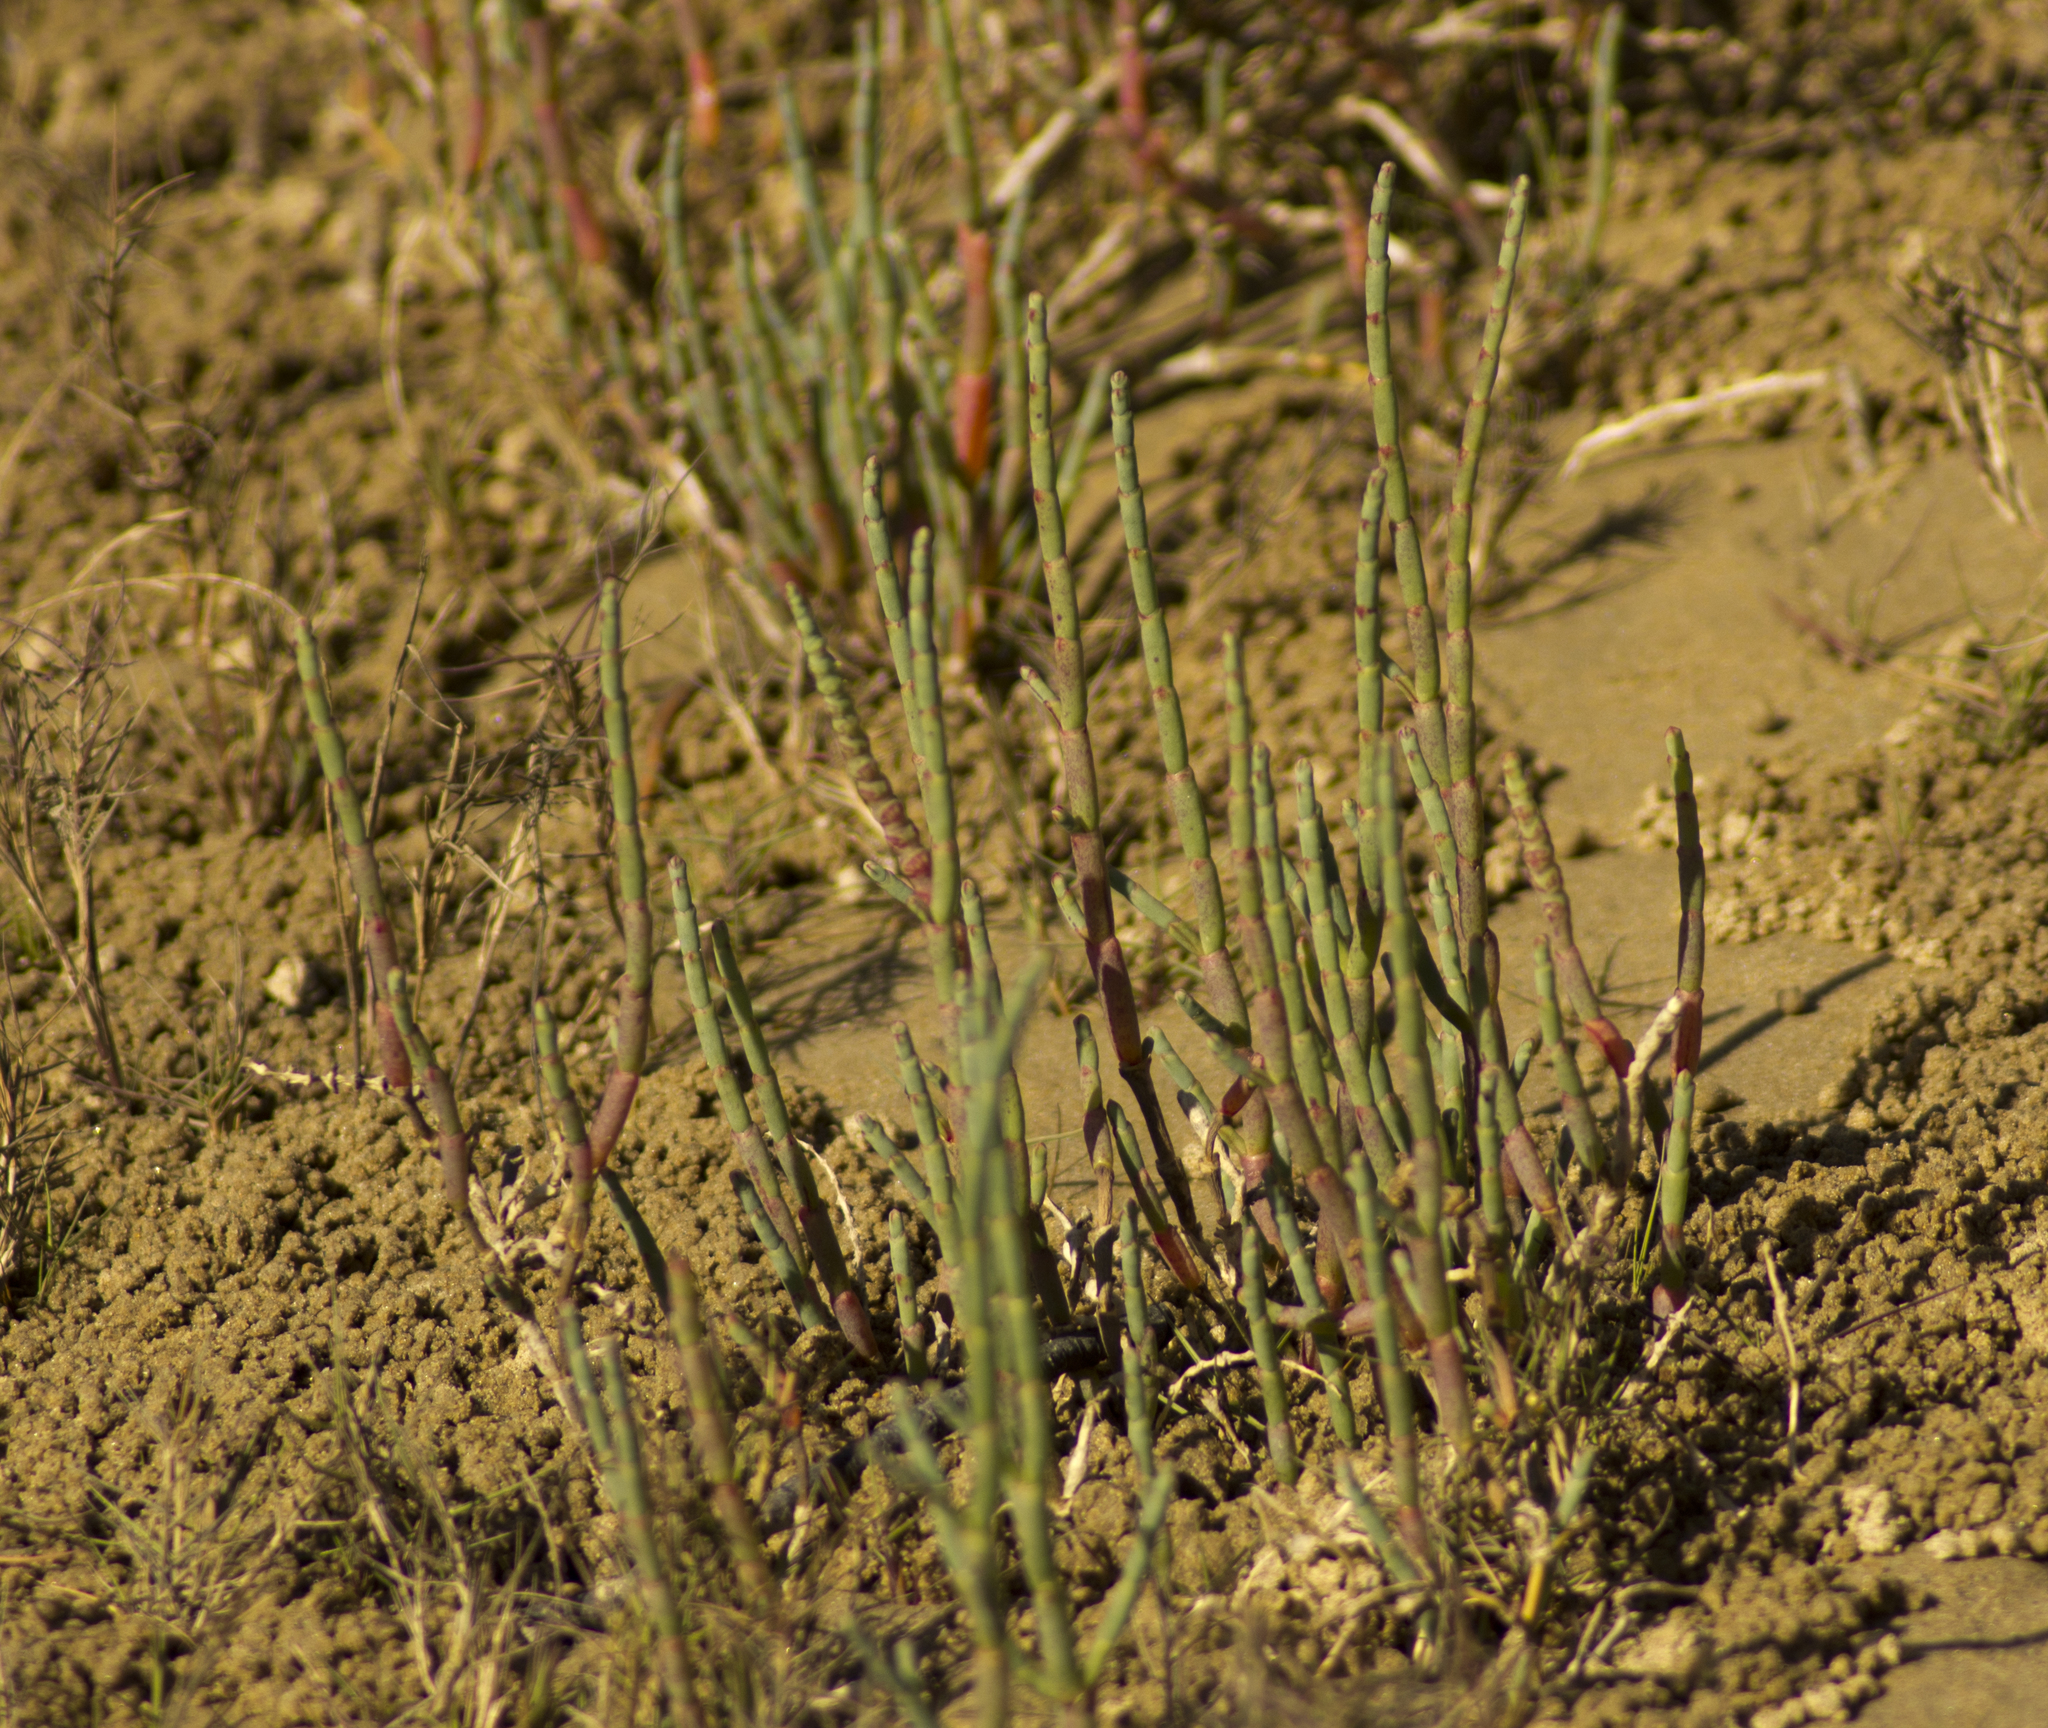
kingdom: Plantae
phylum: Tracheophyta
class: Magnoliopsida
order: Caryophyllales
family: Amaranthaceae
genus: Salicornia
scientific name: Salicornia quinqueflora
